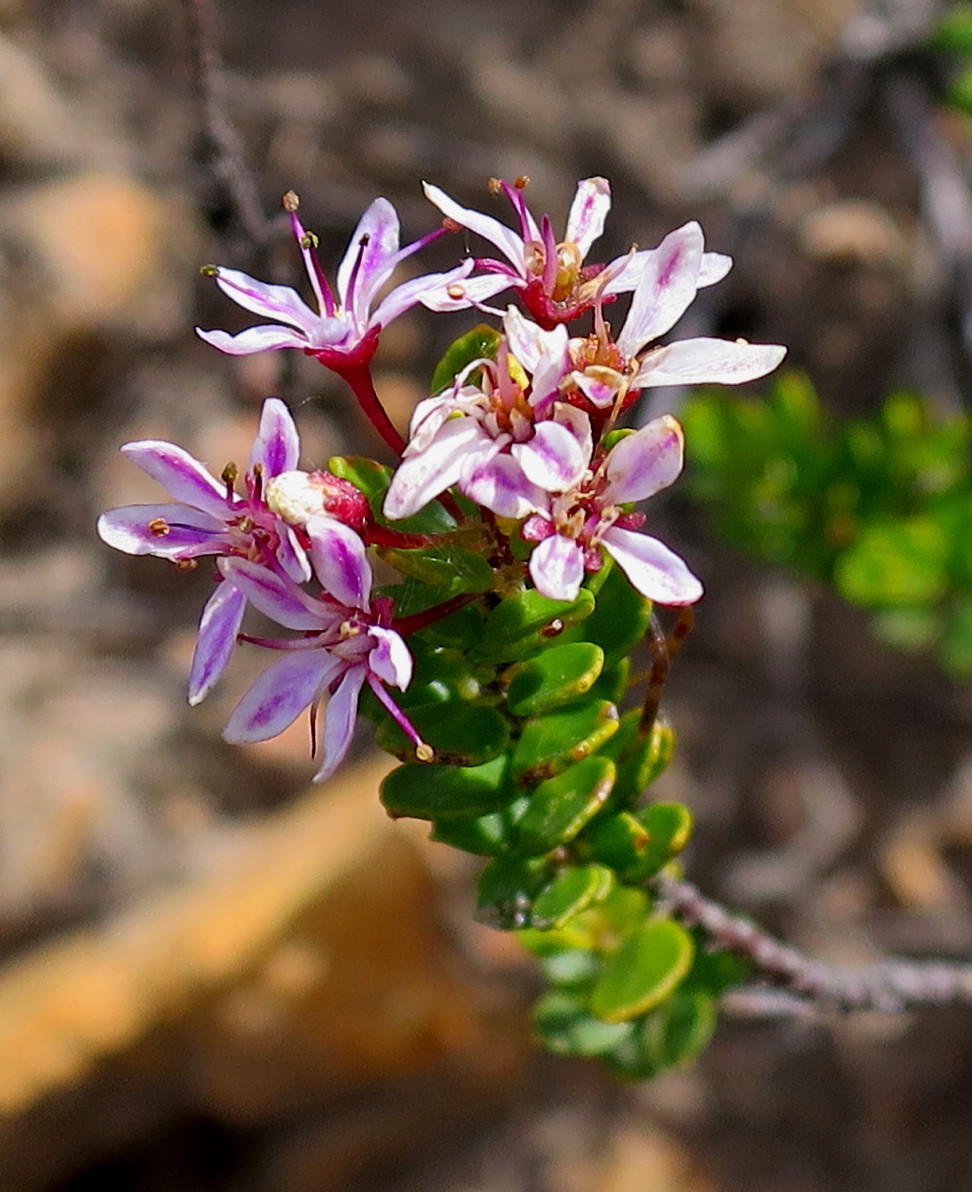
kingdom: Plantae
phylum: Tracheophyta
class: Magnoliopsida
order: Sapindales
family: Rutaceae
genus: Agathosma
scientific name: Agathosma ovata
